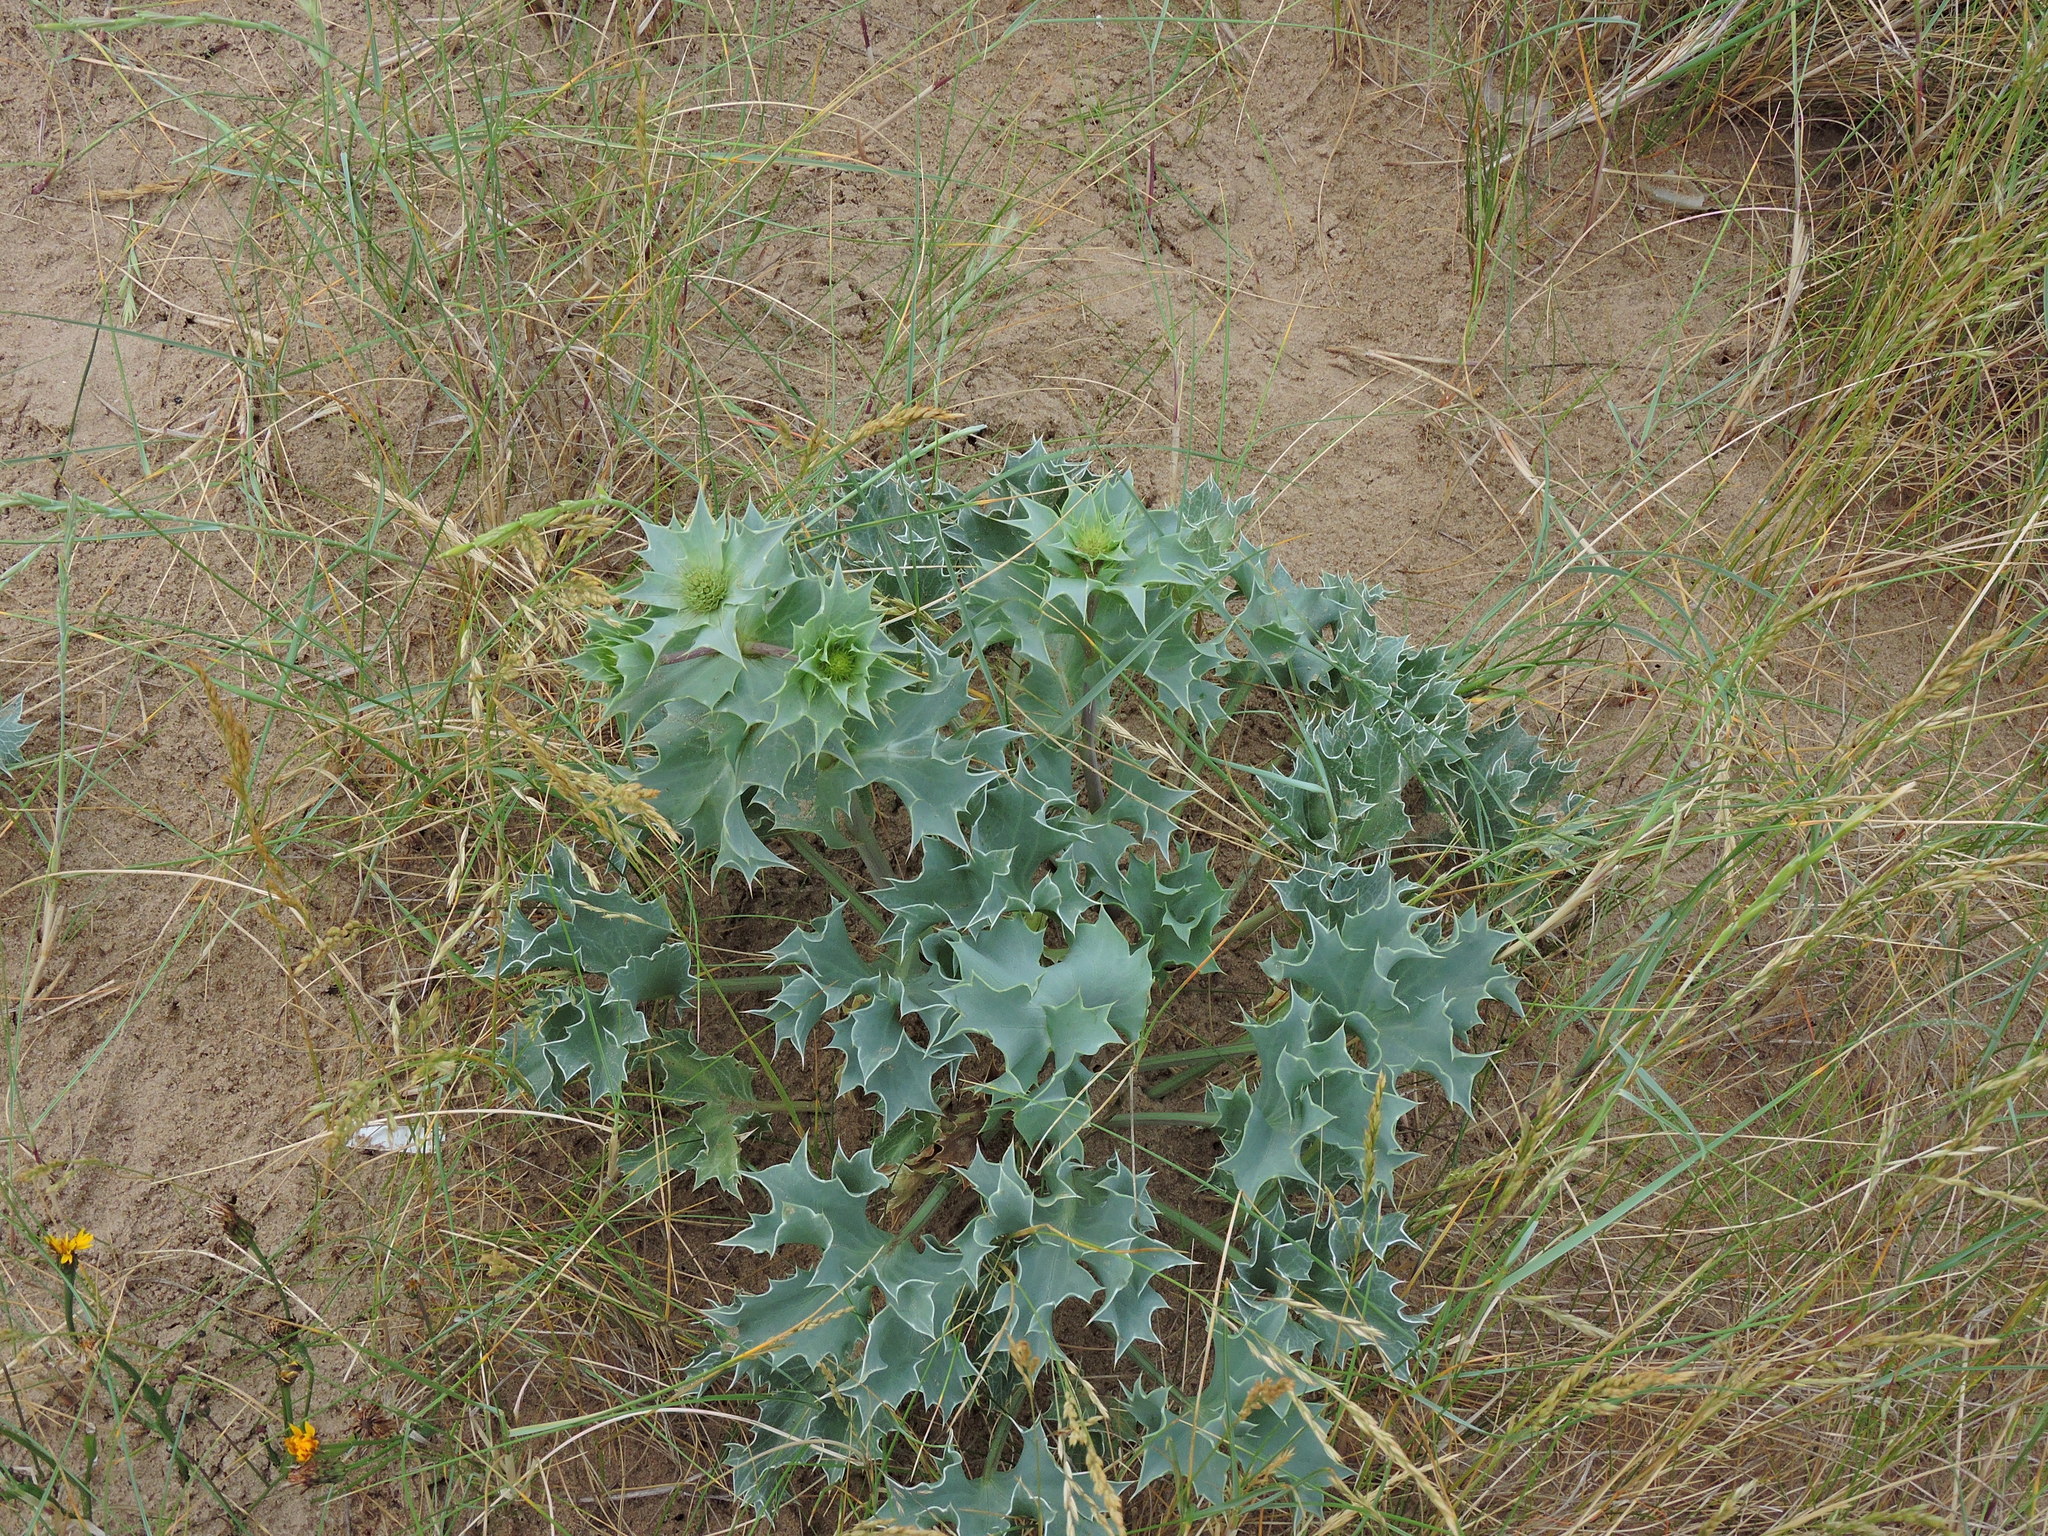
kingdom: Plantae
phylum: Tracheophyta
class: Magnoliopsida
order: Apiales
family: Apiaceae
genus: Eryngium
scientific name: Eryngium maritimum
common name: Sea-holly
